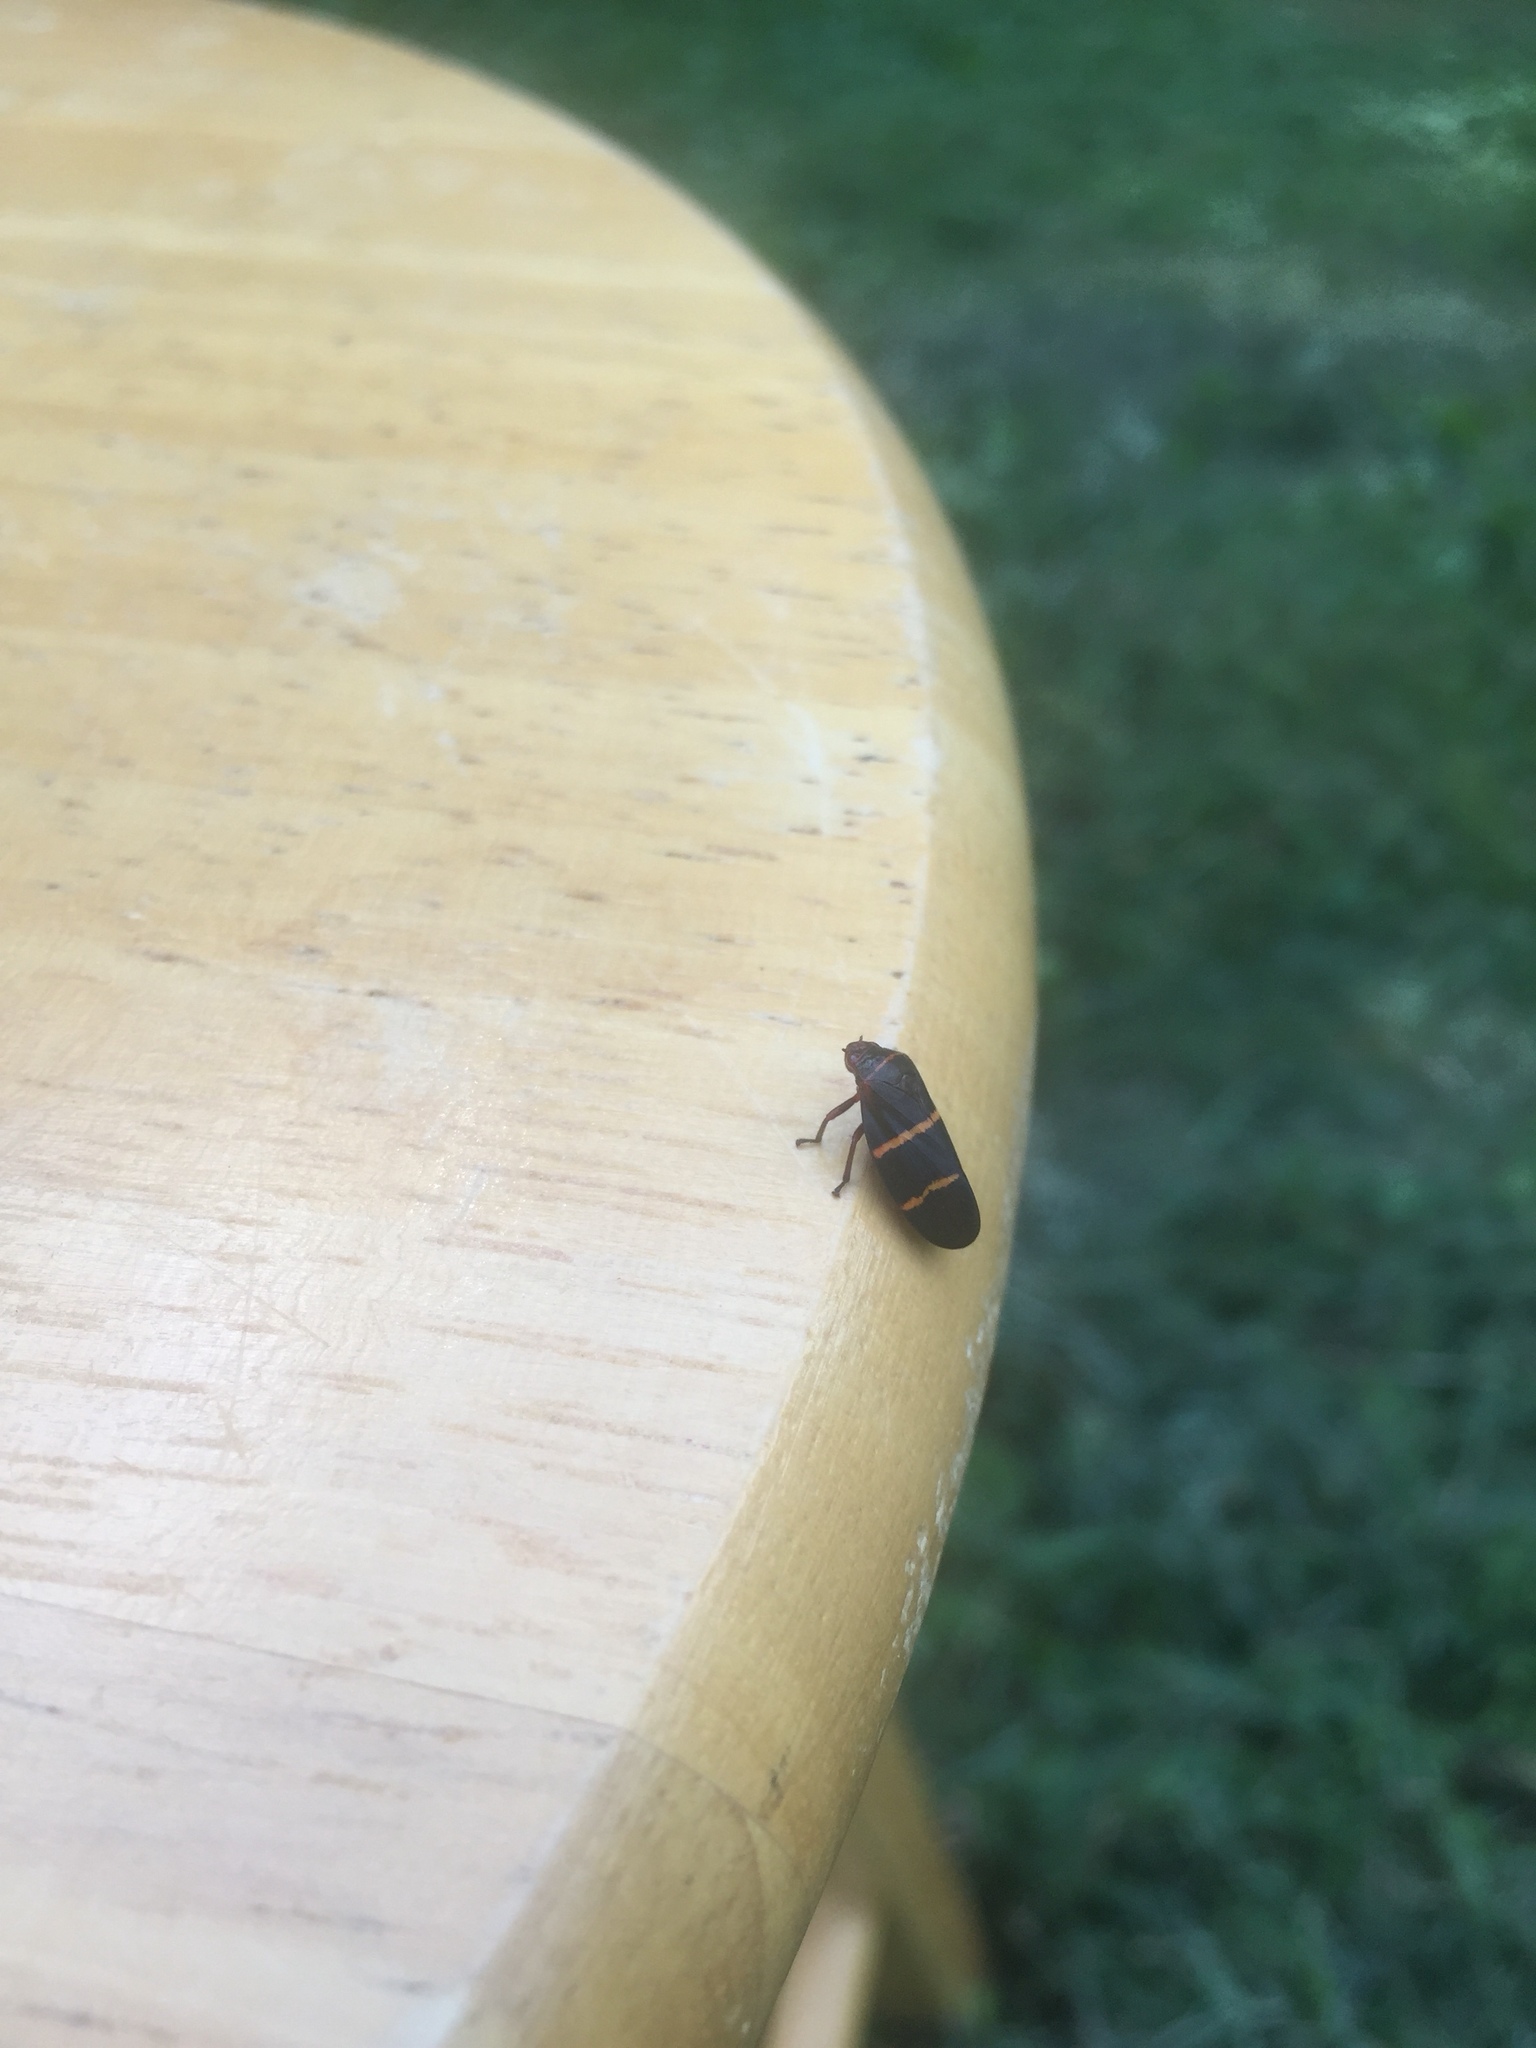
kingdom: Animalia
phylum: Arthropoda
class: Insecta
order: Hemiptera
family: Cercopidae
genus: Prosapia
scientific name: Prosapia bicincta
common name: Twolined spittlebug
